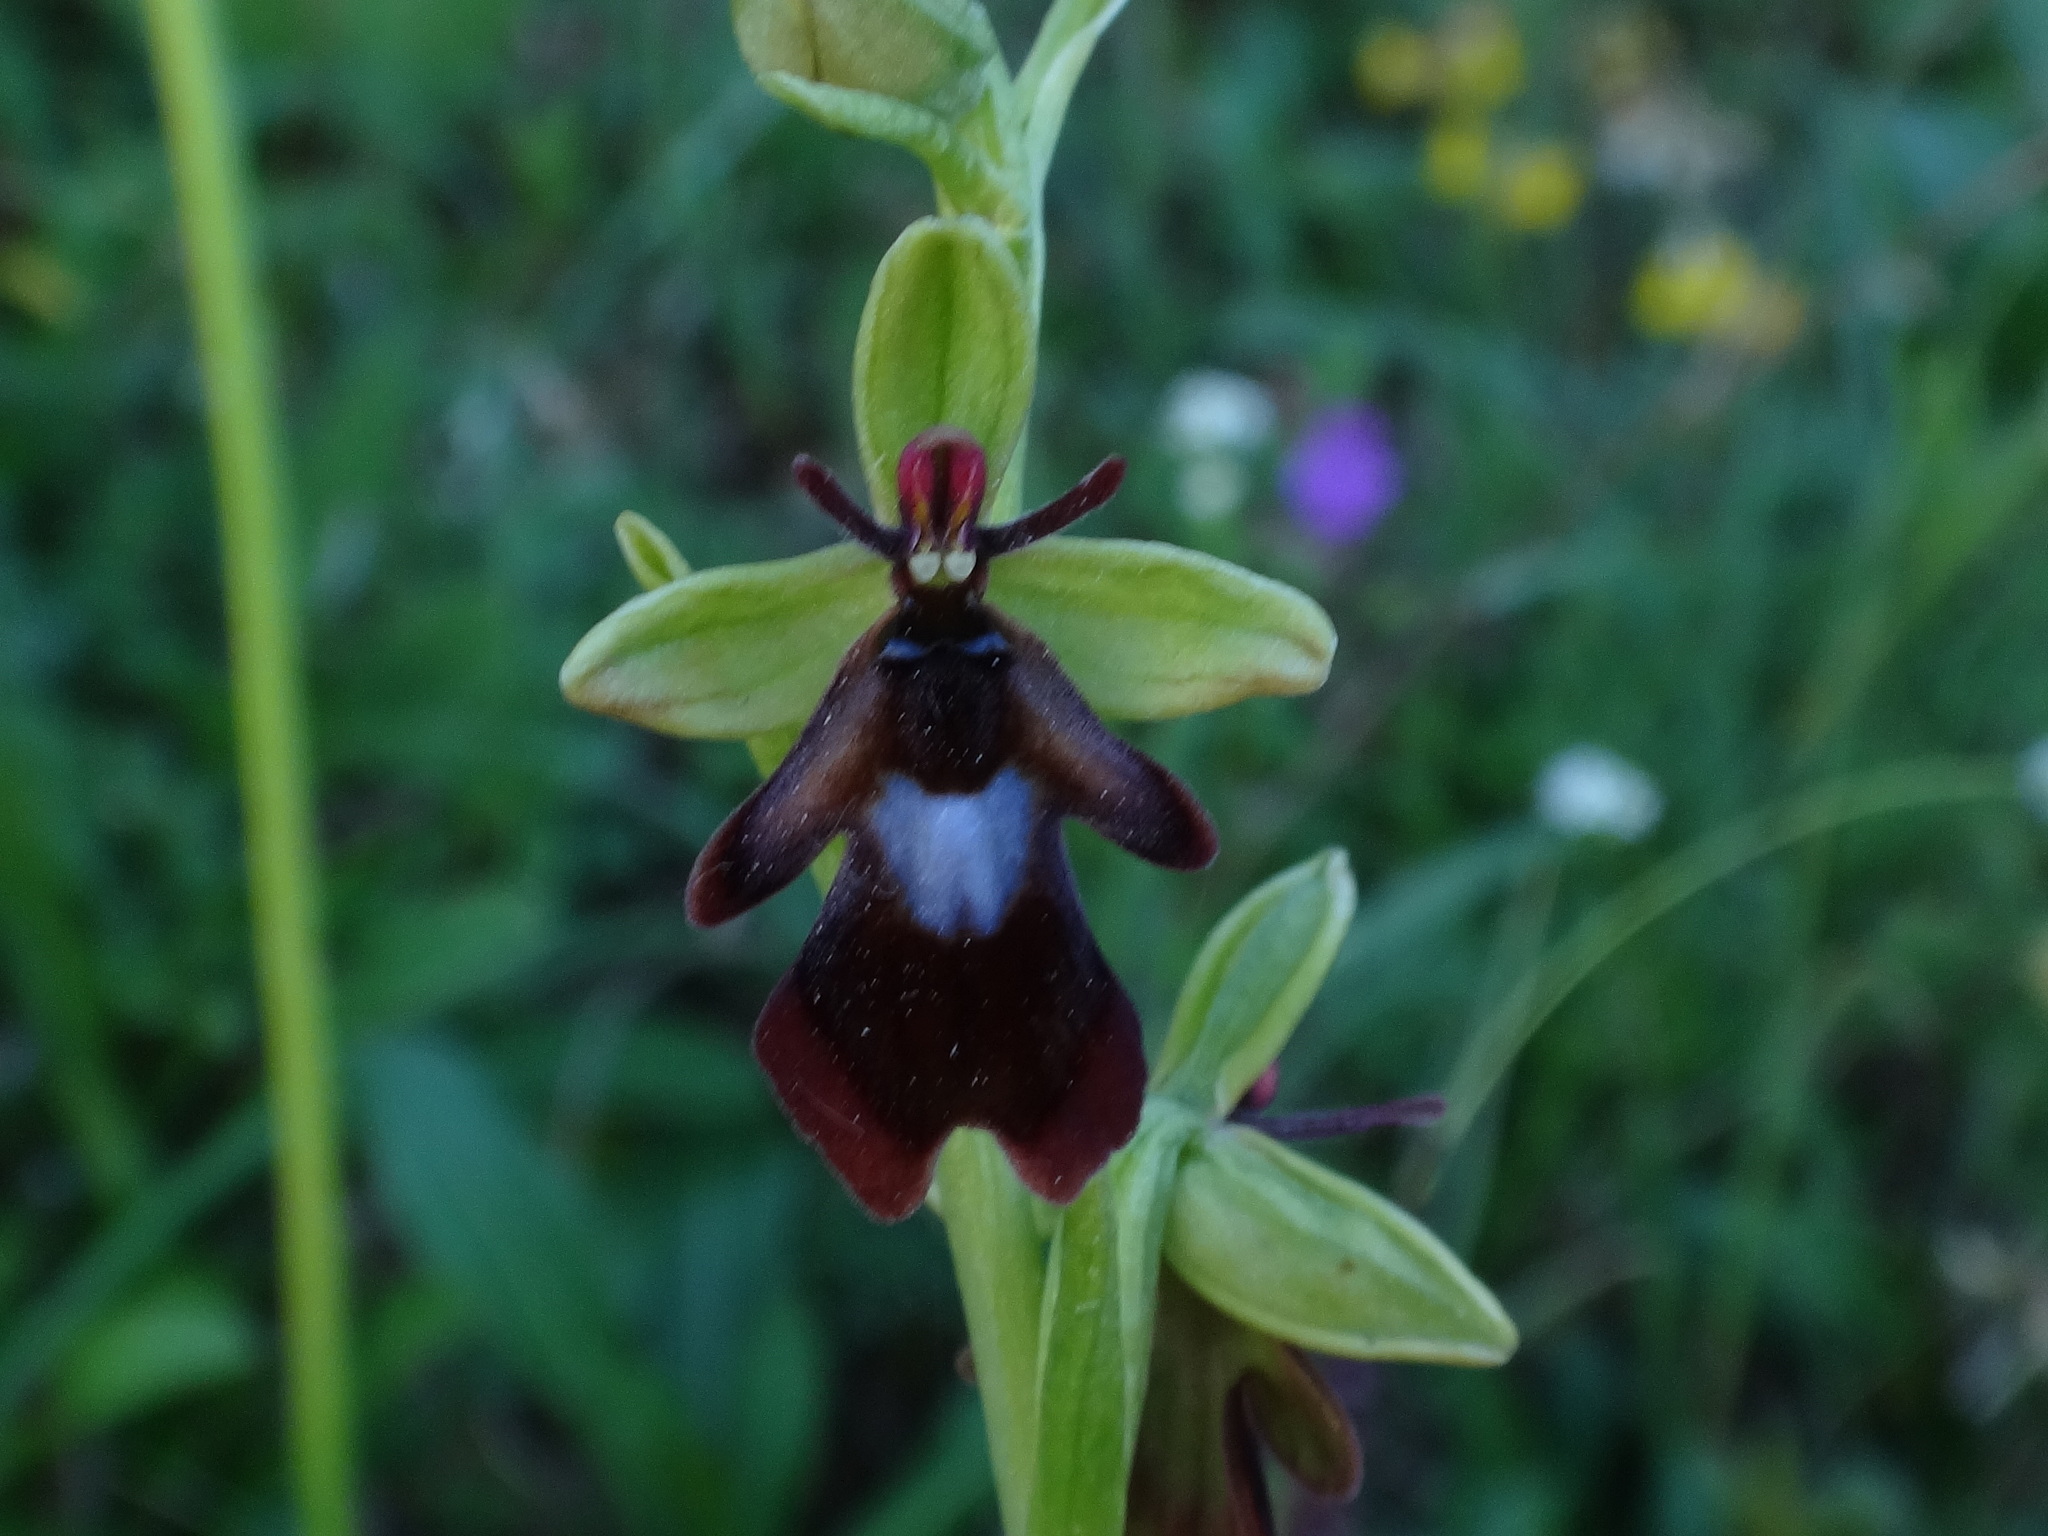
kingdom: Plantae
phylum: Tracheophyta
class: Liliopsida
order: Asparagales
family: Orchidaceae
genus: Ophrys
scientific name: Ophrys insectifera
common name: Fly orchid
